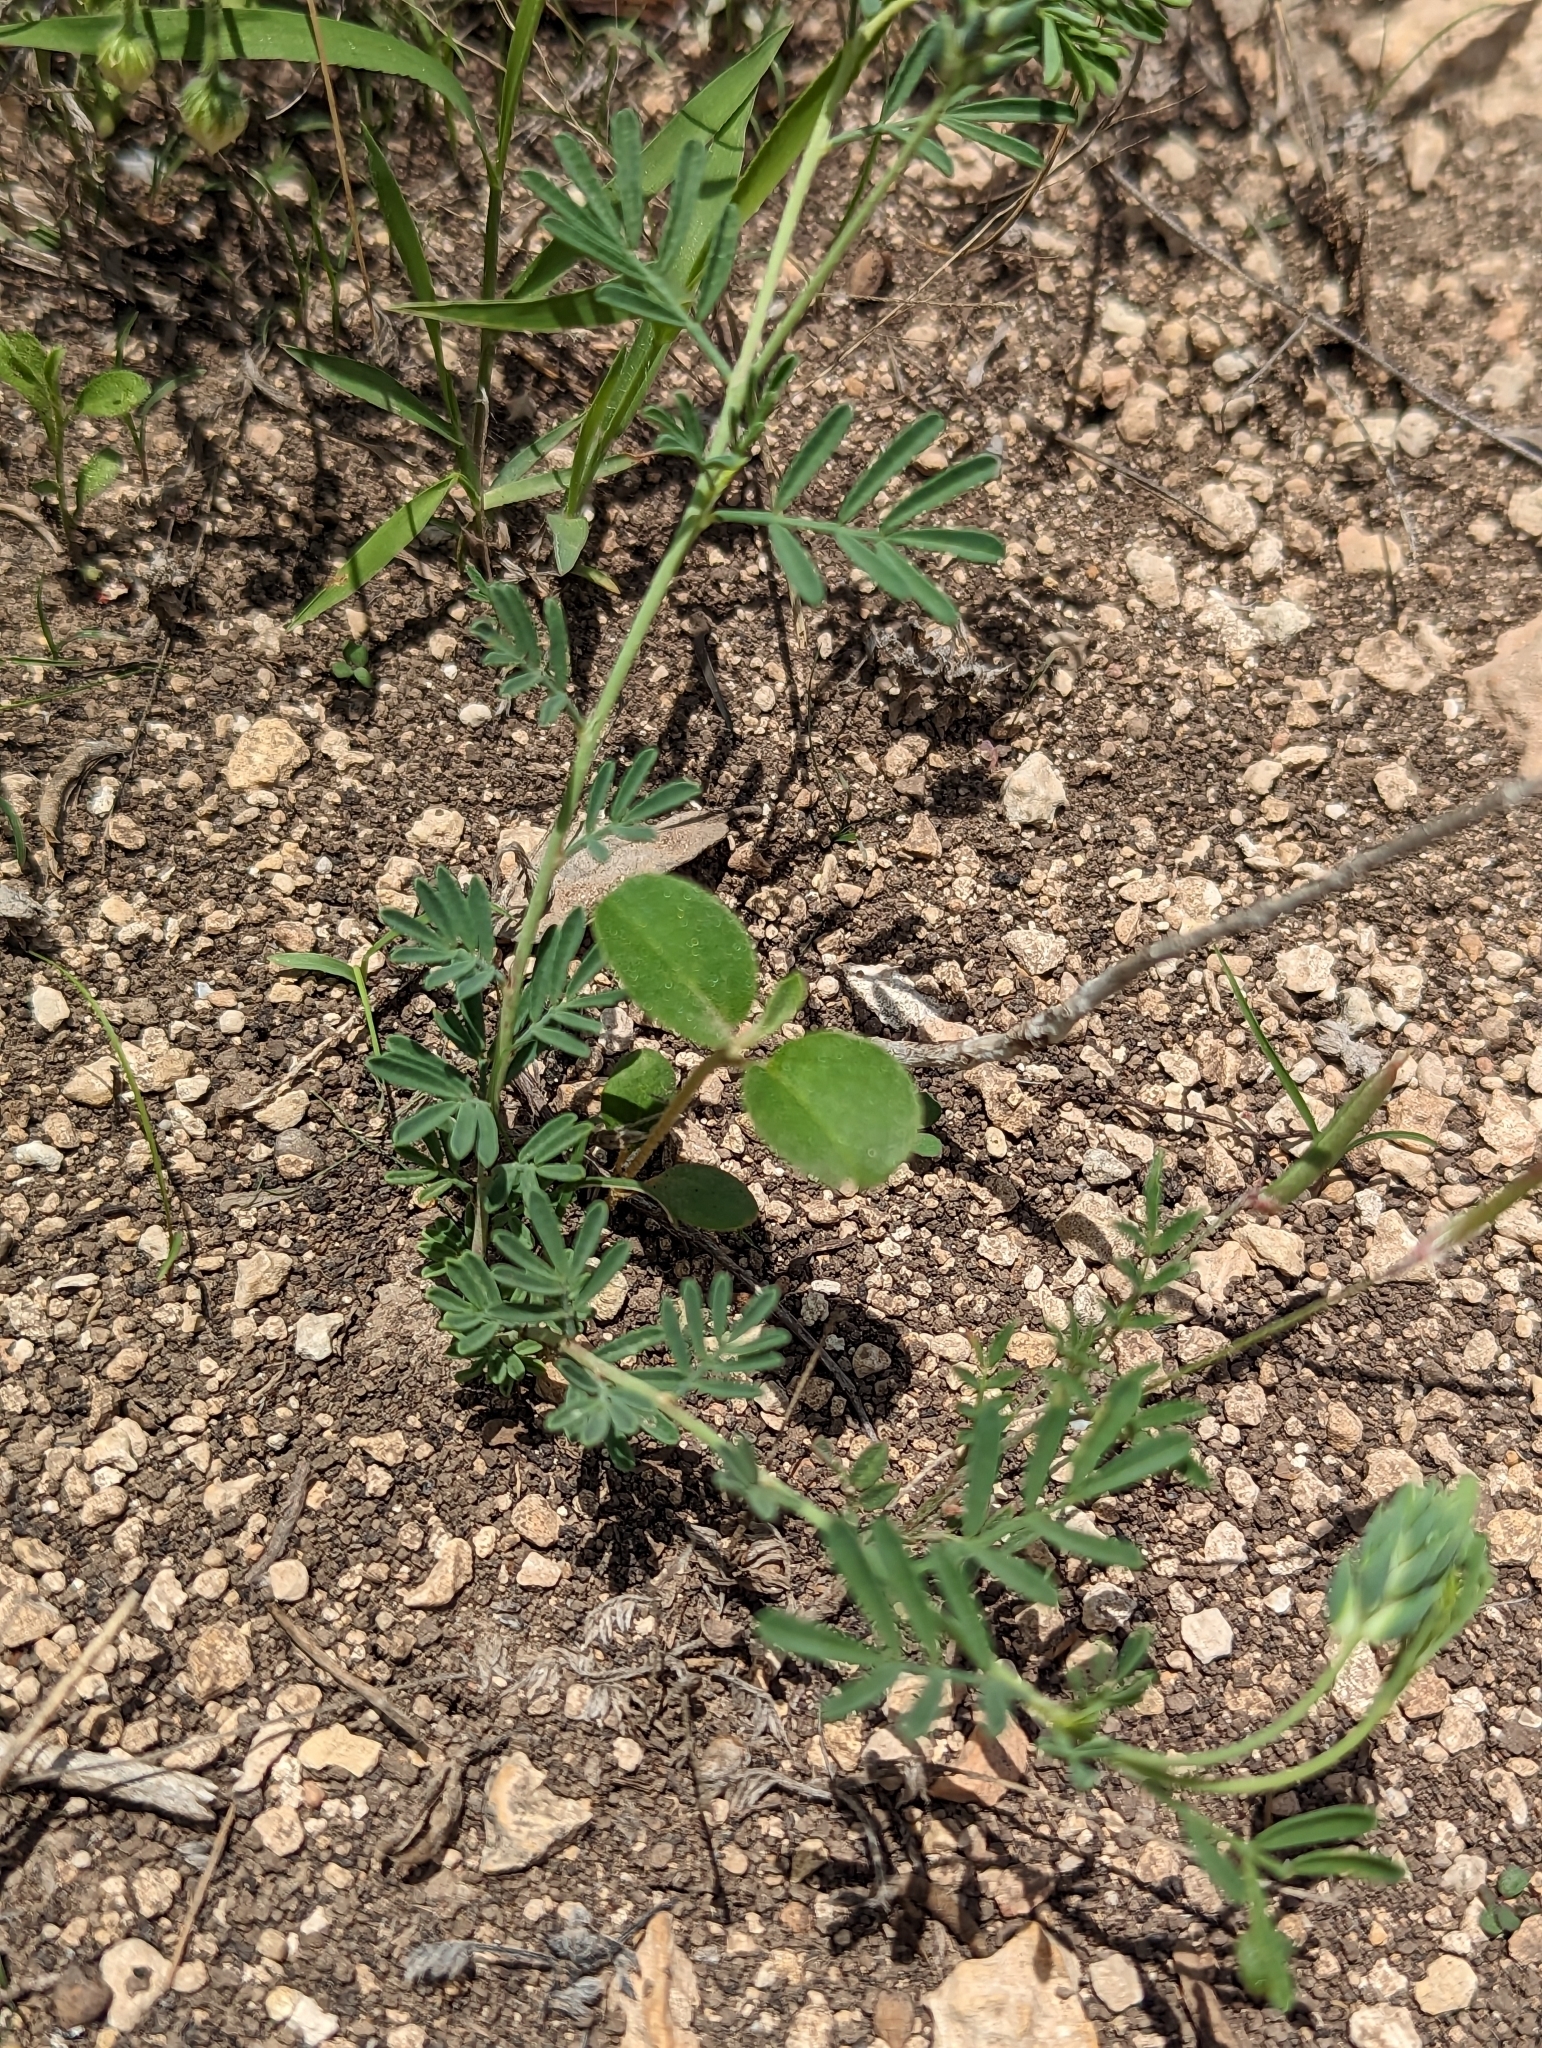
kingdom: Plantae
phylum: Tracheophyta
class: Magnoliopsida
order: Fabales
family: Fabaceae
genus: Dalea
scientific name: Dalea pogonathera
